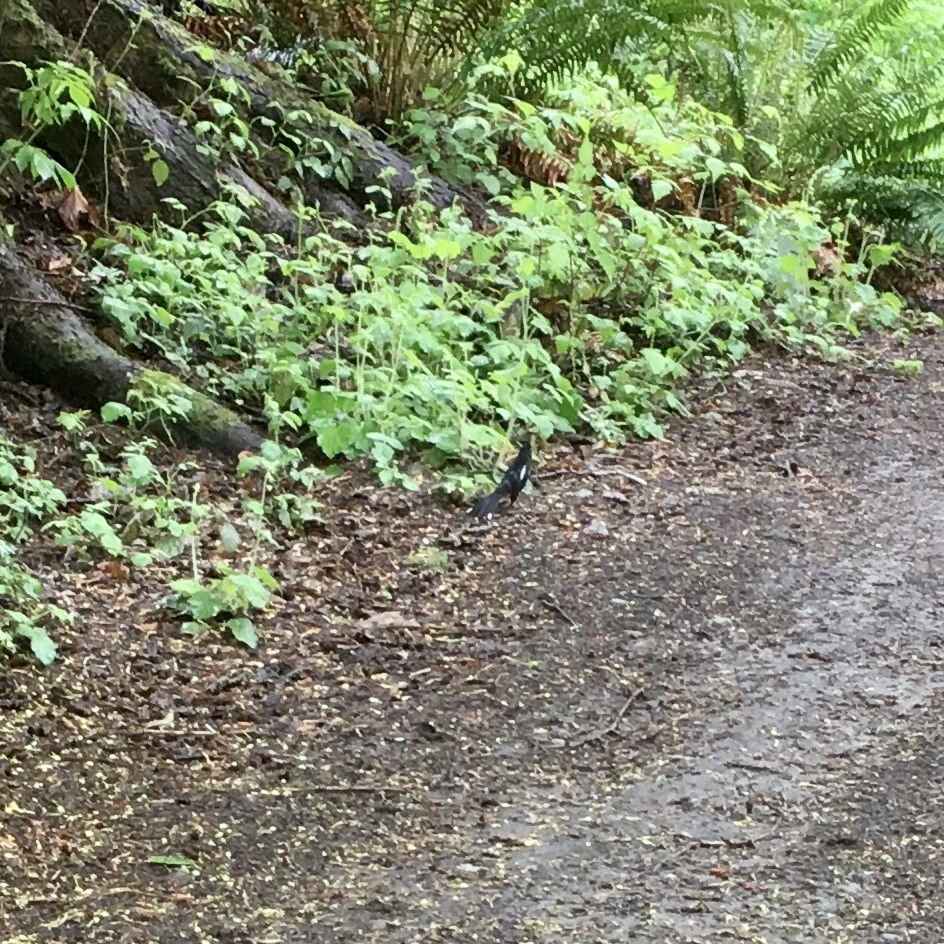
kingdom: Animalia
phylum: Chordata
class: Aves
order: Passeriformes
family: Passerellidae
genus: Pipilo
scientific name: Pipilo maculatus
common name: Spotted towhee
